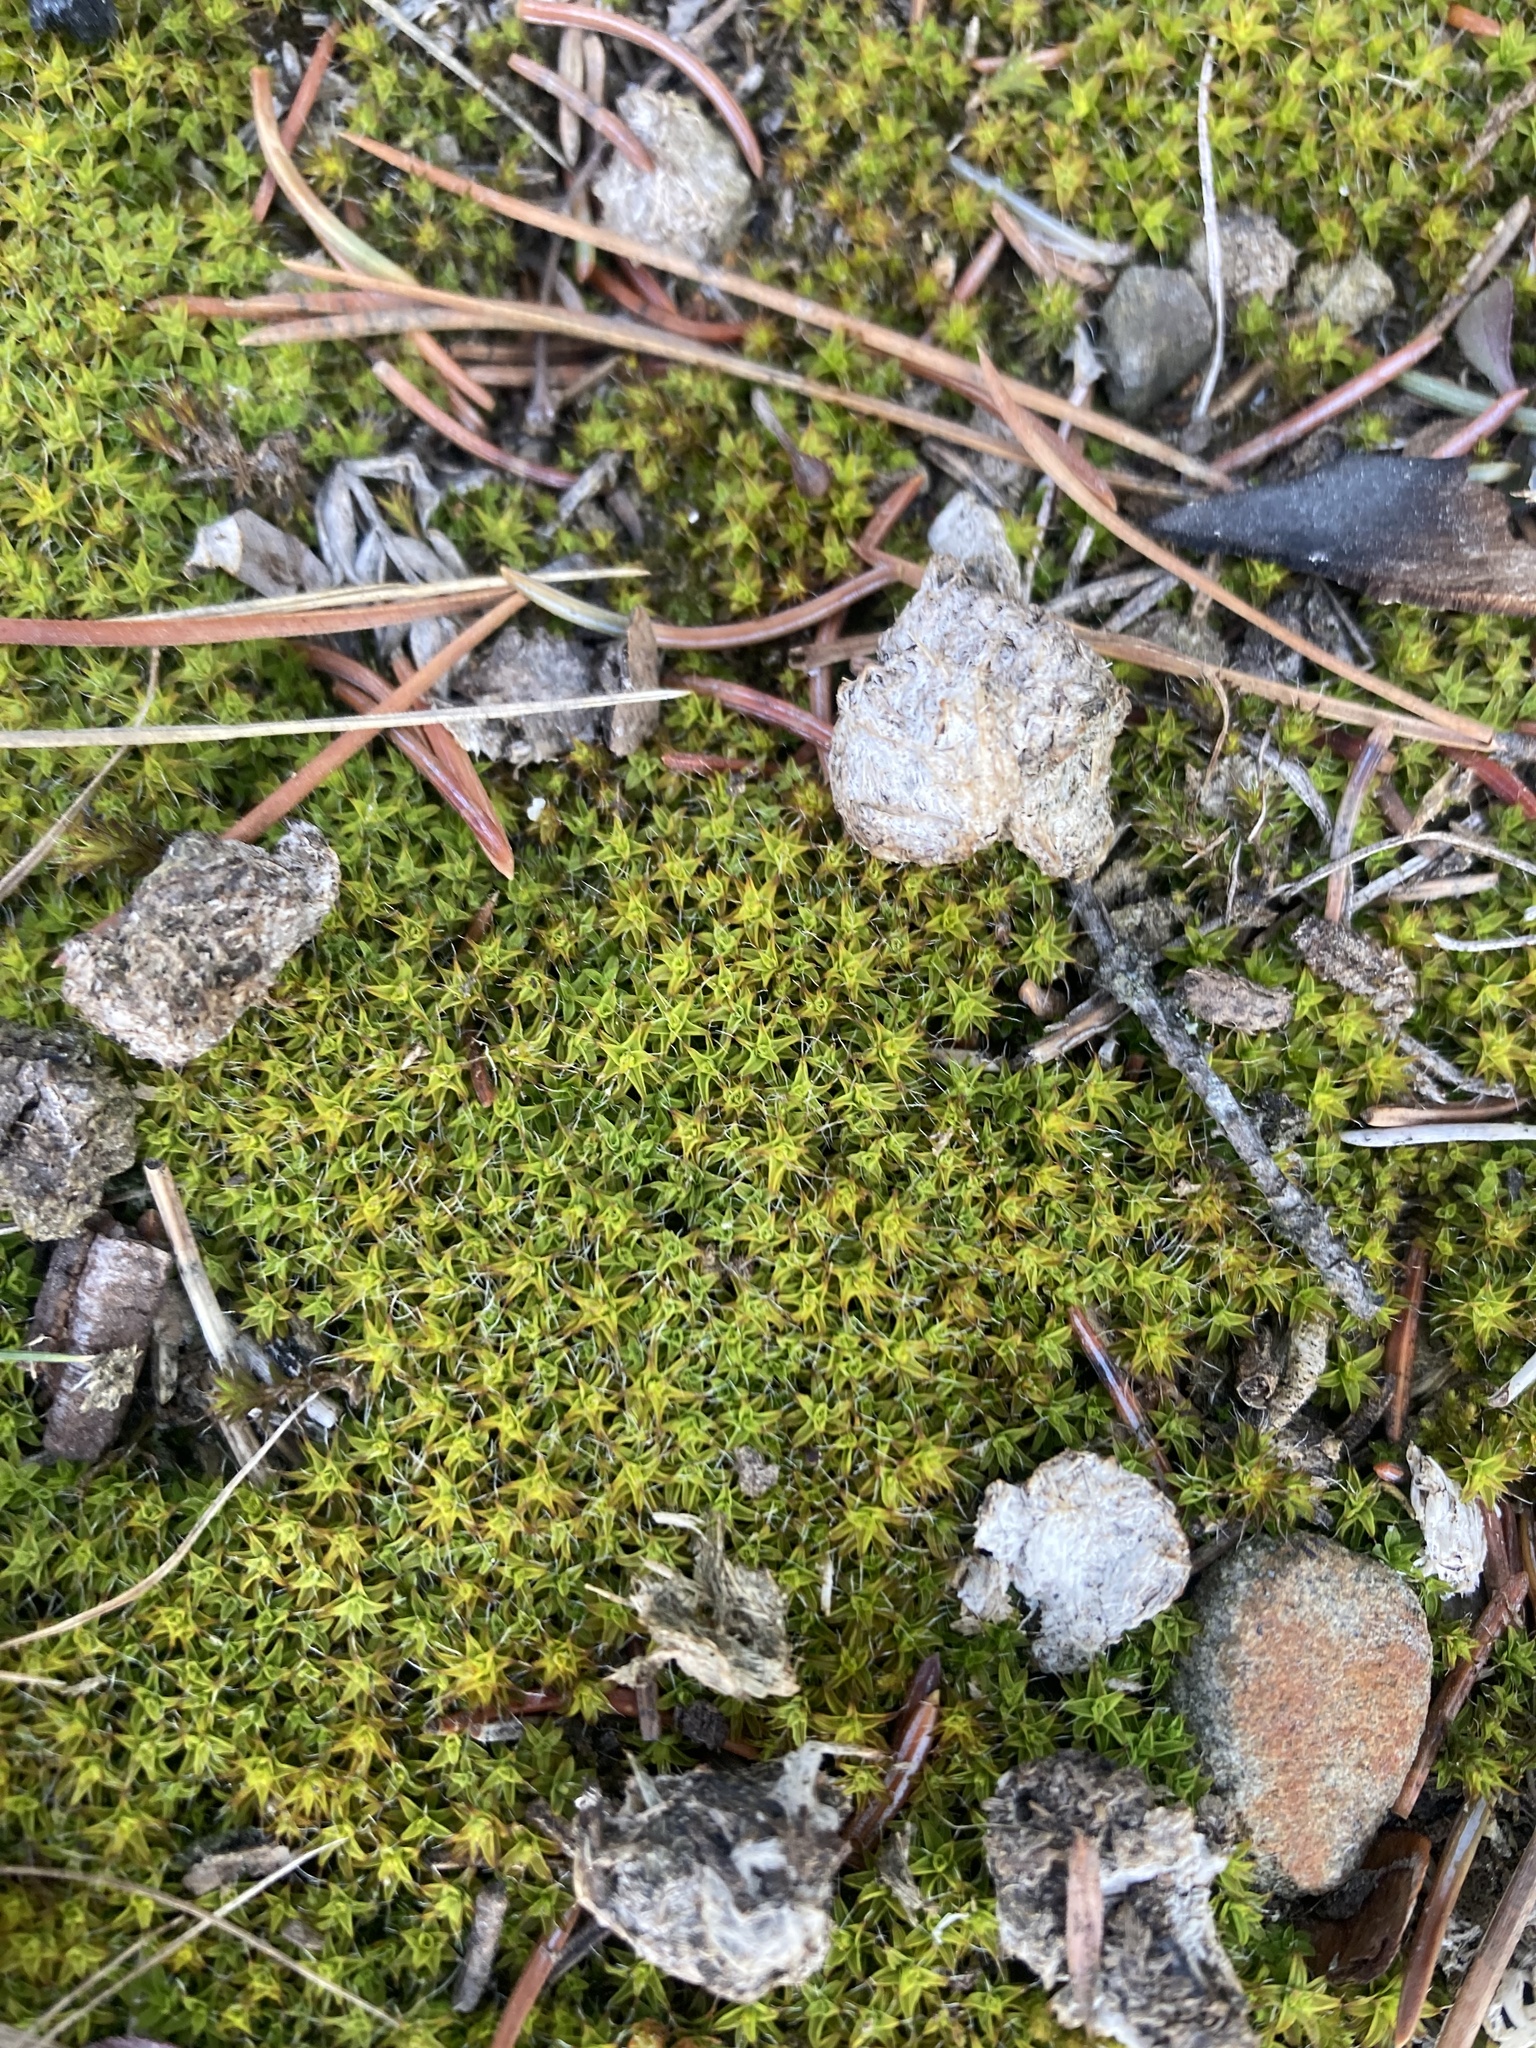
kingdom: Plantae
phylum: Bryophyta
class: Bryopsida
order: Pottiales
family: Pottiaceae
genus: Syntrichia
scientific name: Syntrichia ruralis
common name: Sidewalk screw moss
